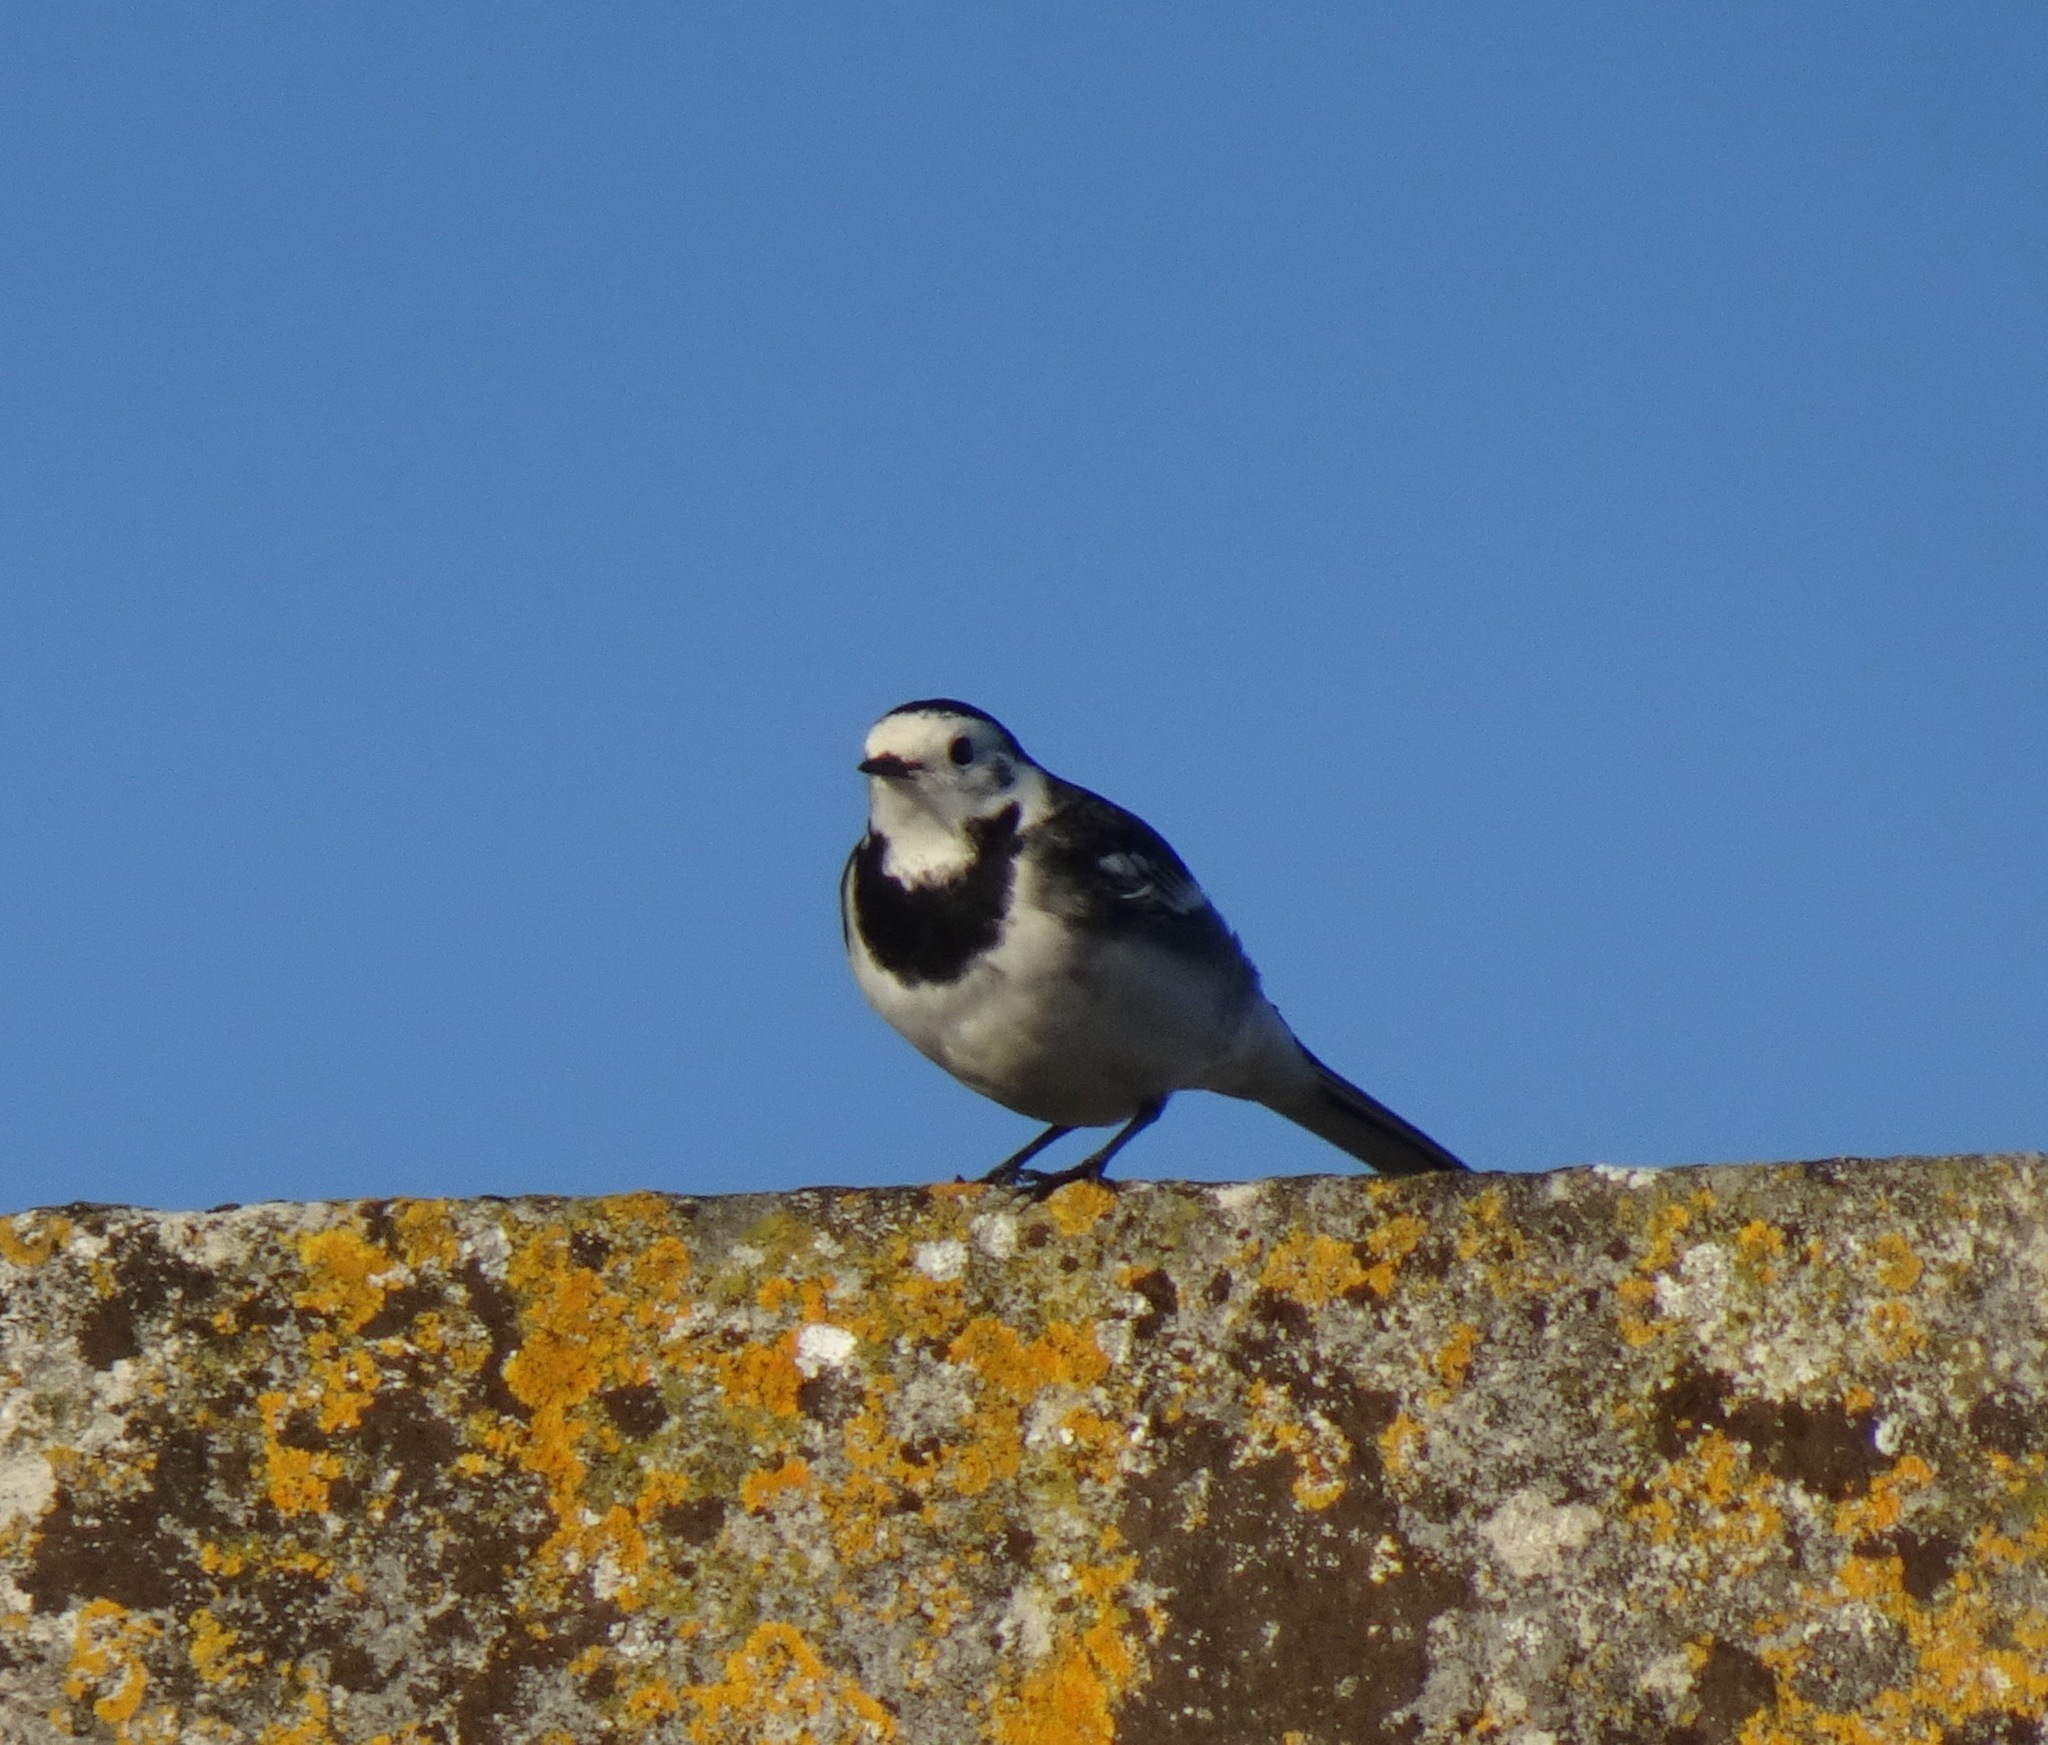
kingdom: Animalia
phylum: Chordata
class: Aves
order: Passeriformes
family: Motacillidae
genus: Motacilla
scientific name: Motacilla alba
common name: White wagtail
